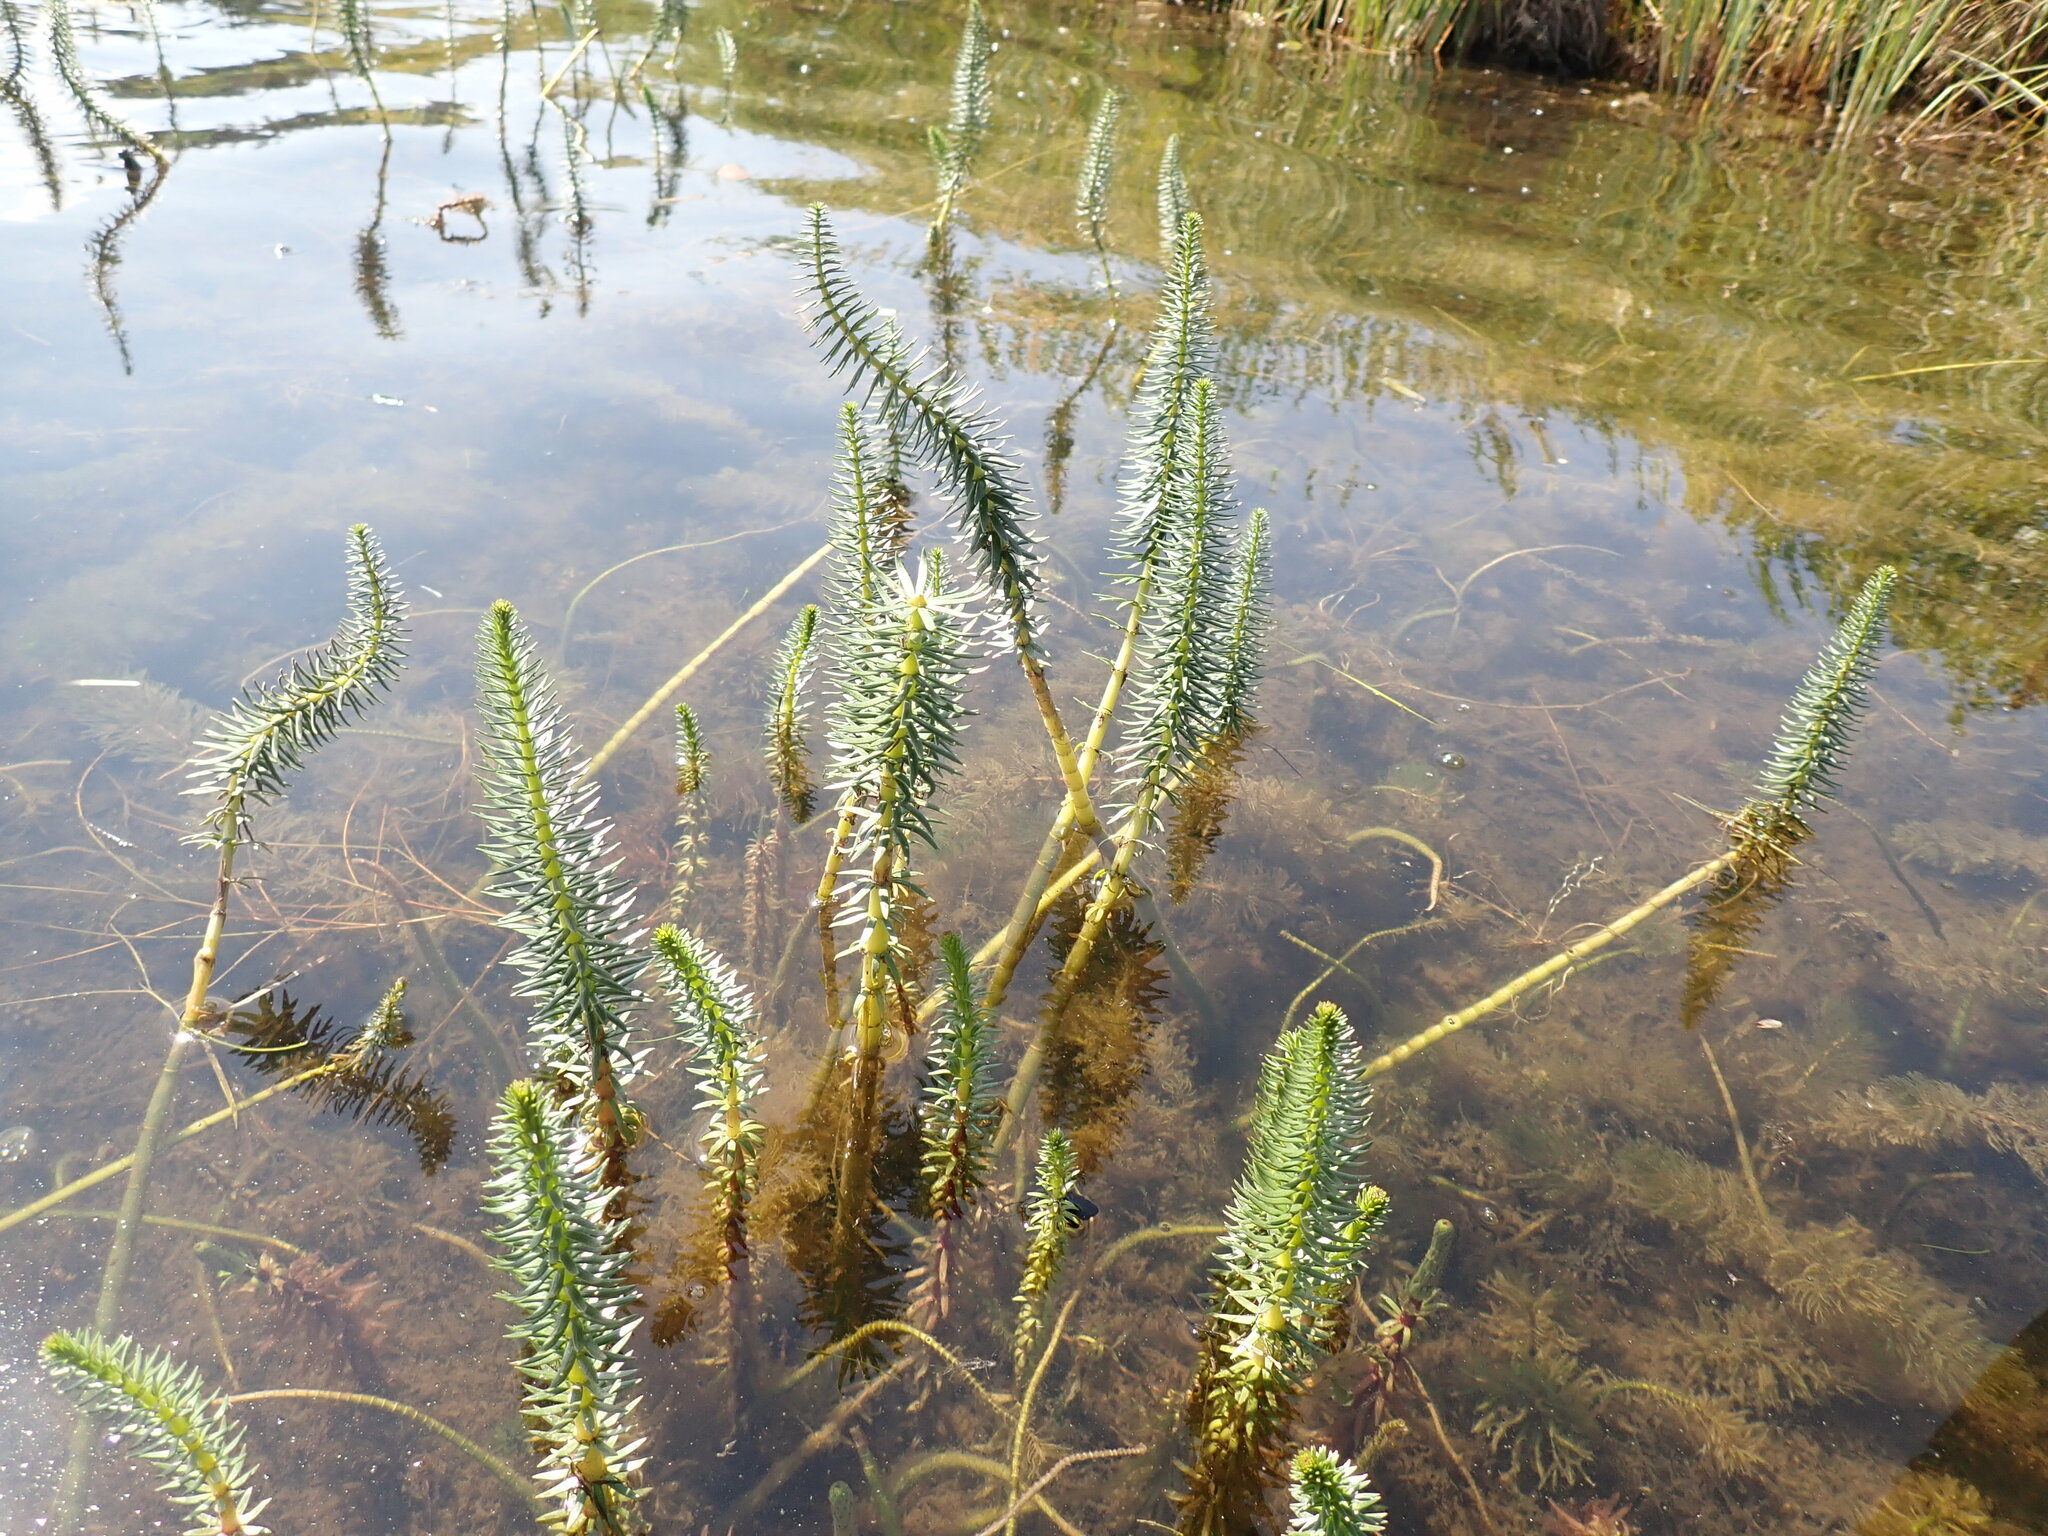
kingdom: Plantae
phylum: Tracheophyta
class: Magnoliopsida
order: Lamiales
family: Plantaginaceae
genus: Hippuris
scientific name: Hippuris vulgaris
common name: Mare's-tail
